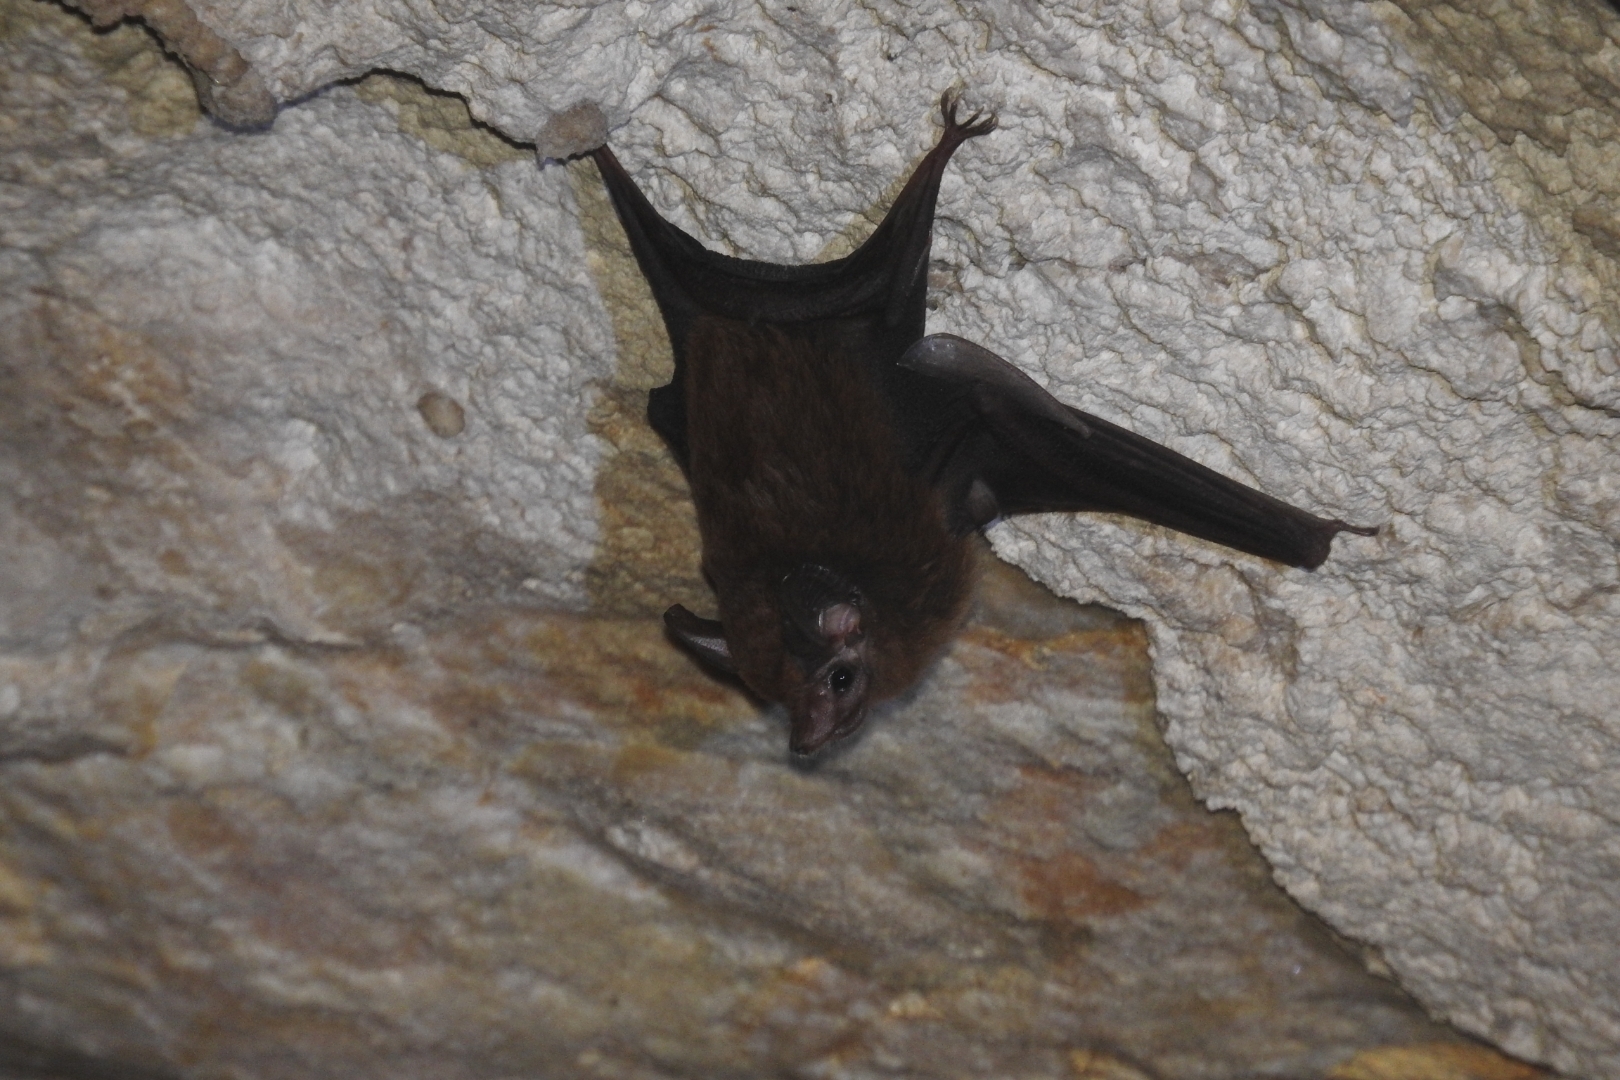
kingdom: Animalia
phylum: Chordata
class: Mammalia
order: Chiroptera
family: Emballonuridae
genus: Peropteryx
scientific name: Peropteryx macrotis
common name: Lesser dog-like bat
